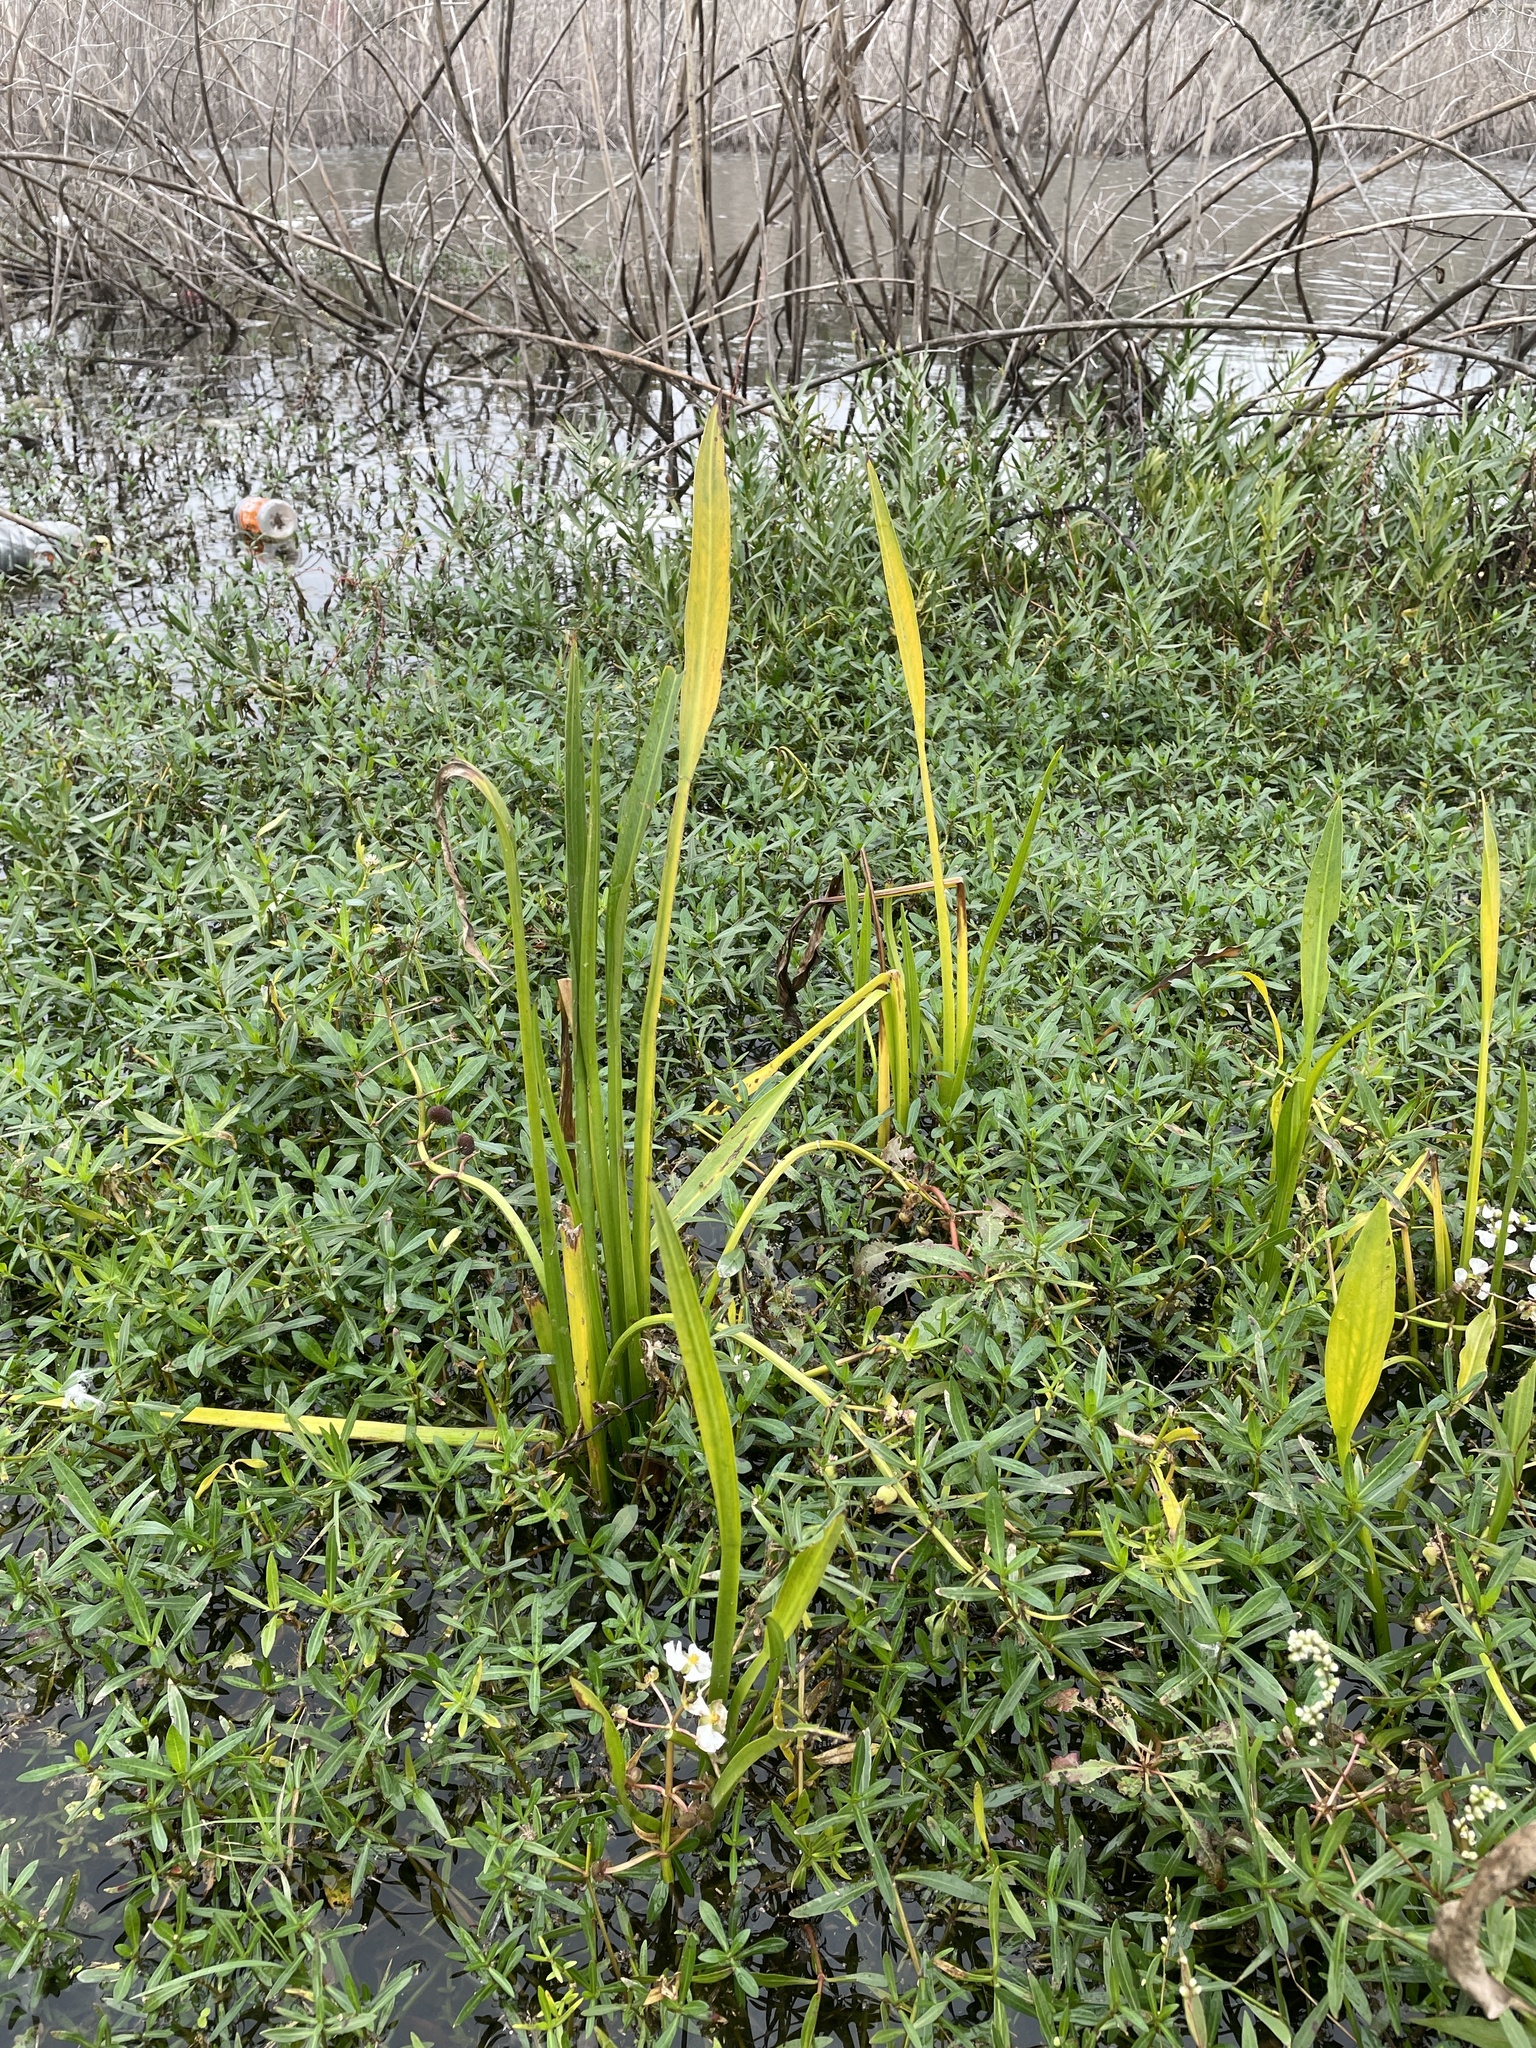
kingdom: Plantae
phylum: Tracheophyta
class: Liliopsida
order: Alismatales
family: Alismataceae
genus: Sagittaria
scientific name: Sagittaria platyphylla
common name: Broad-leaf arrowhead
